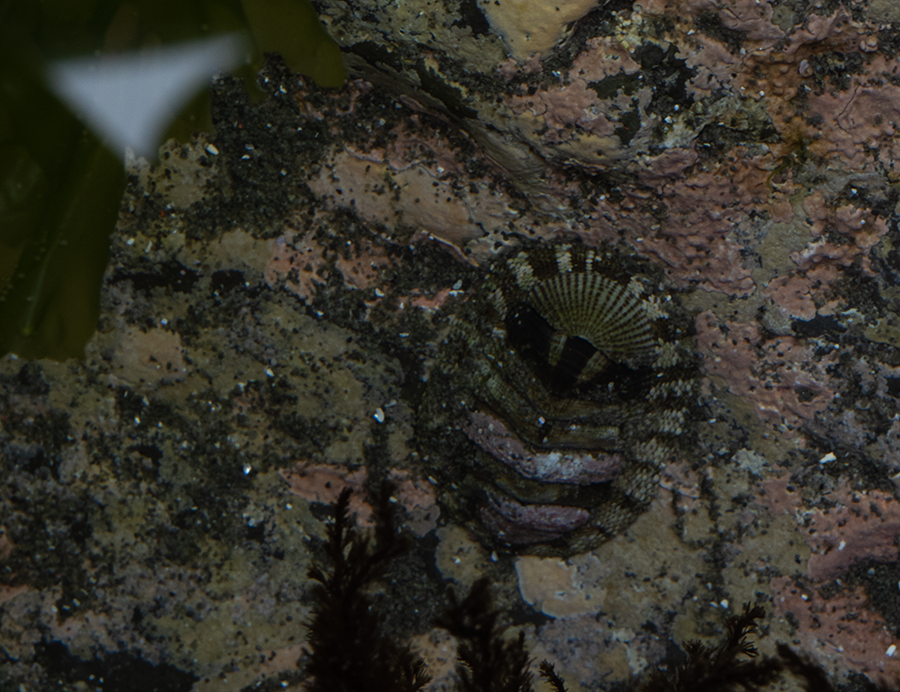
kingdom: Animalia
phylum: Mollusca
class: Polyplacophora
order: Chitonida
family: Chitonidae
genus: Sypharochiton
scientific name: Sypharochiton pelliserpentis
